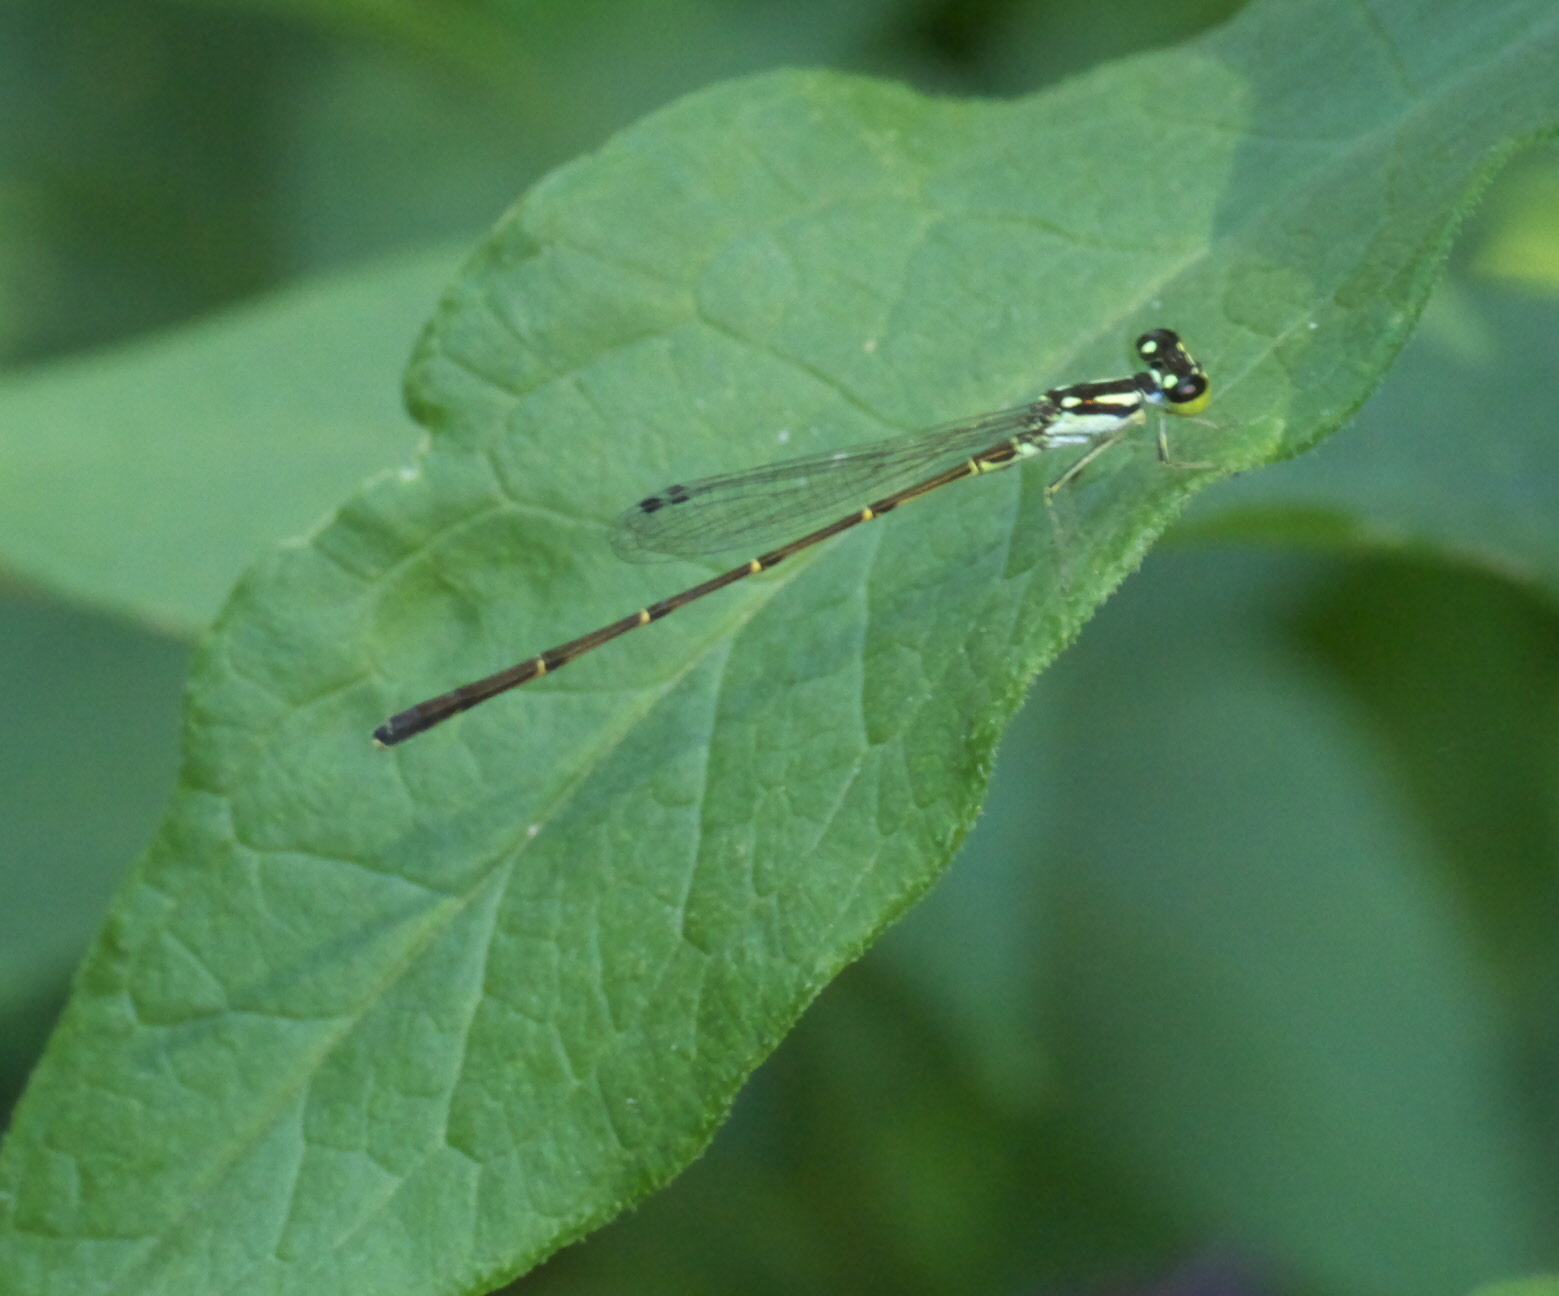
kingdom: Animalia
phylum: Arthropoda
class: Insecta
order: Odonata
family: Coenagrionidae
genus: Ischnura
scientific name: Ischnura posita
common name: Fragile forktail
